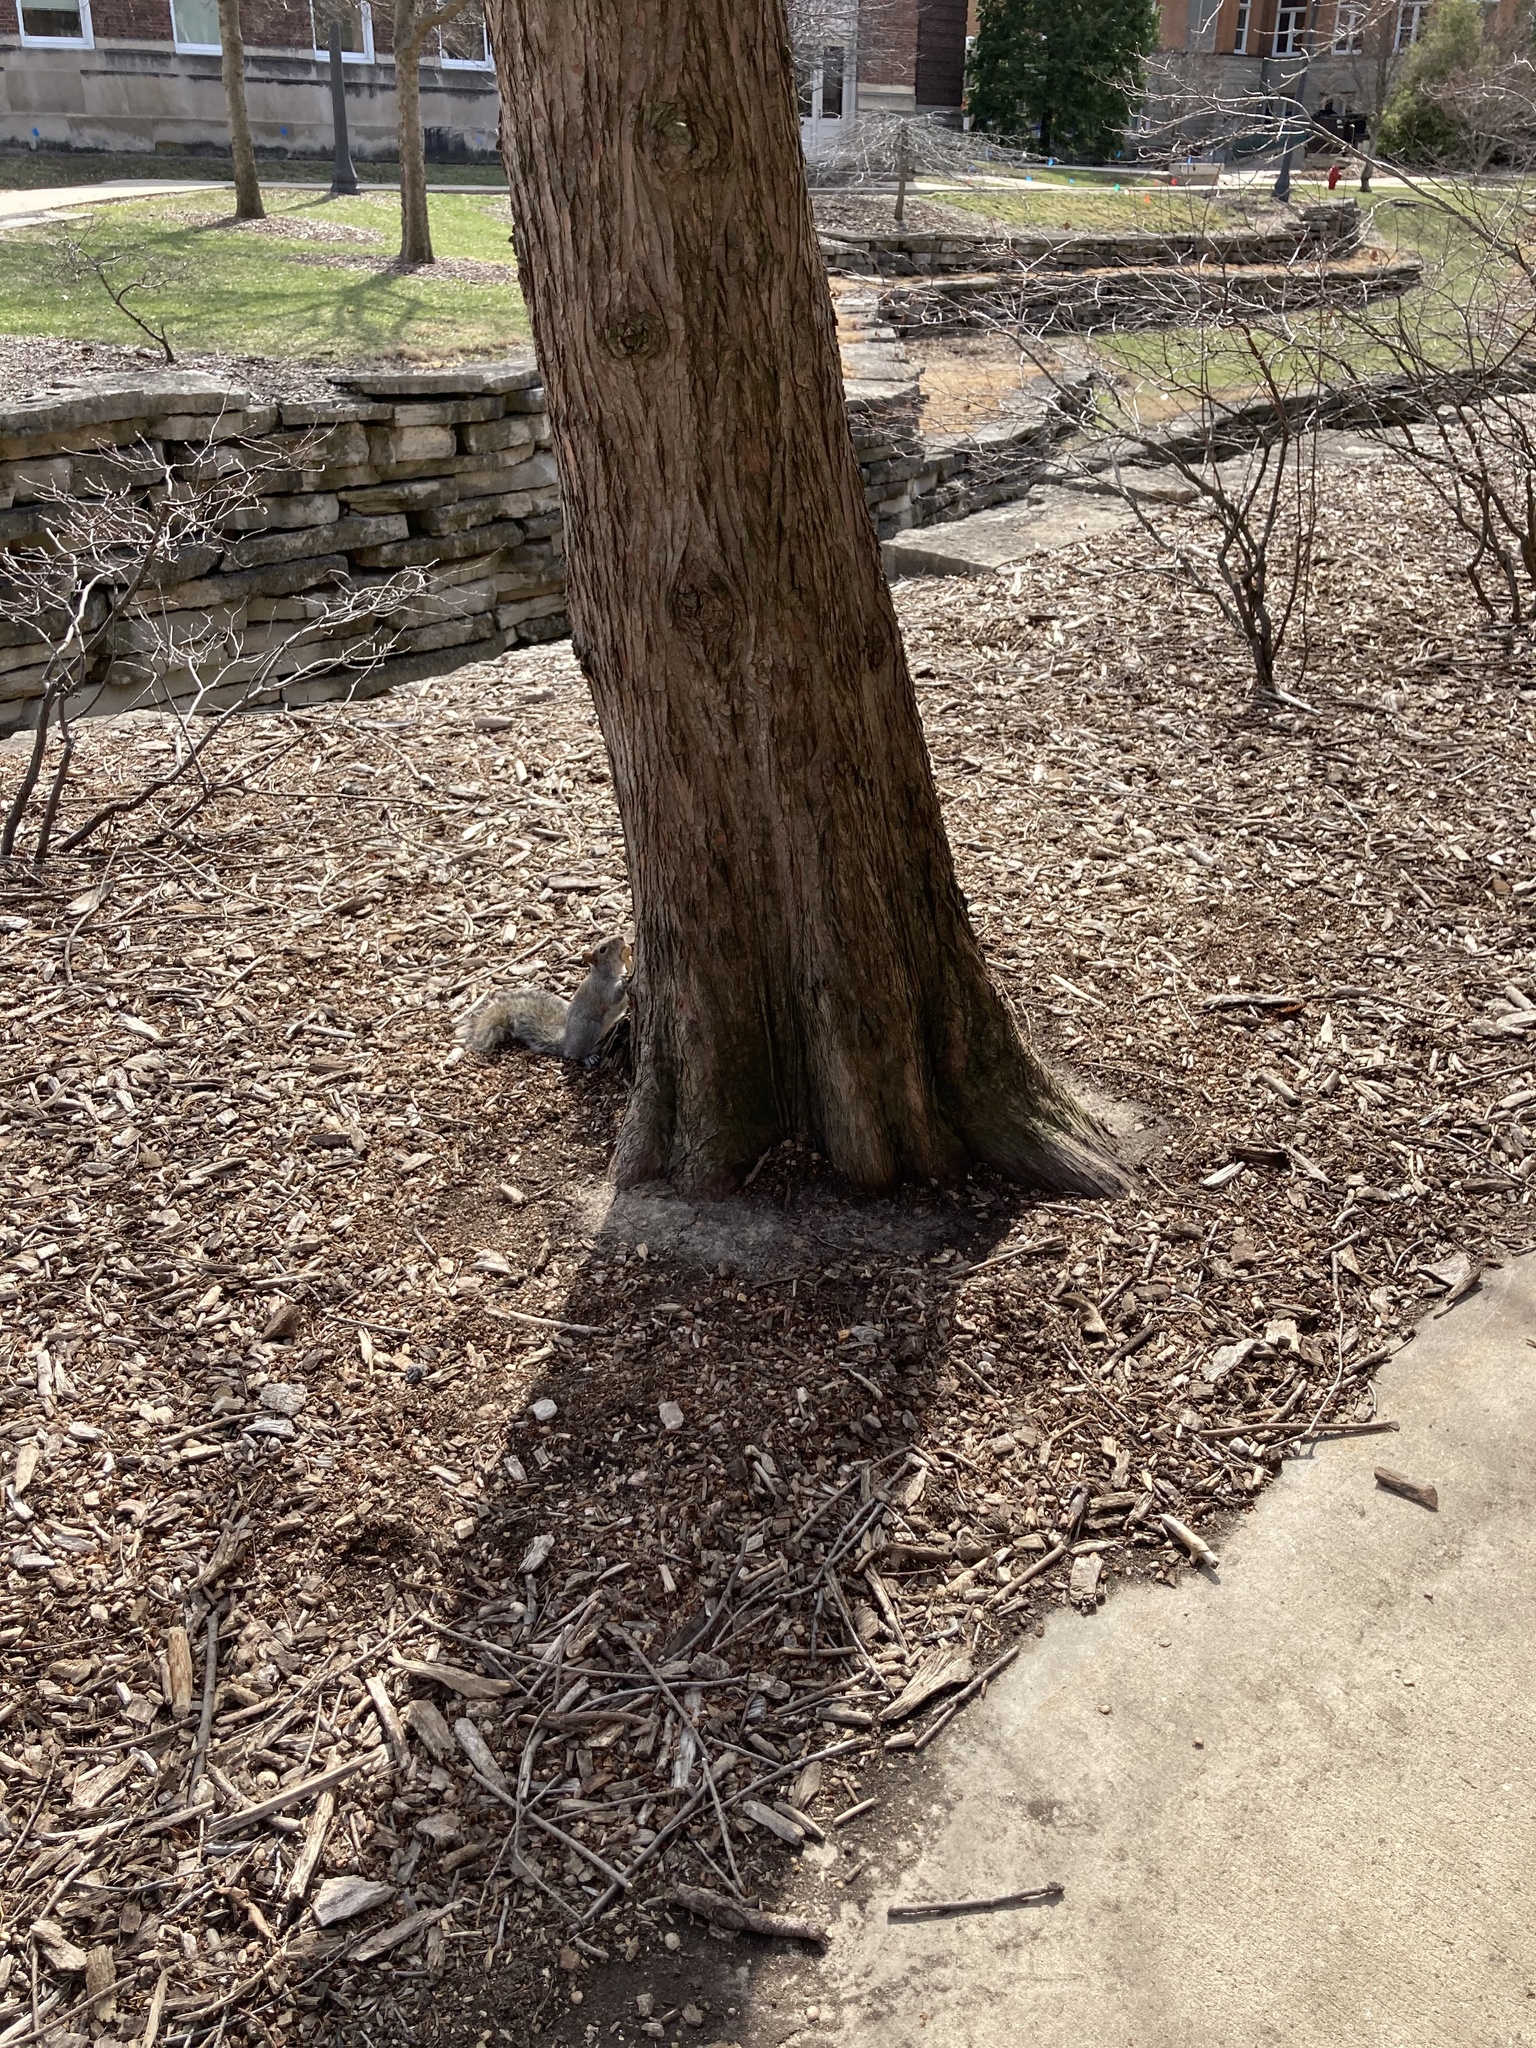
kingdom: Animalia
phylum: Chordata
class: Mammalia
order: Rodentia
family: Sciuridae
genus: Sciurus
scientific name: Sciurus carolinensis
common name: Eastern gray squirrel
